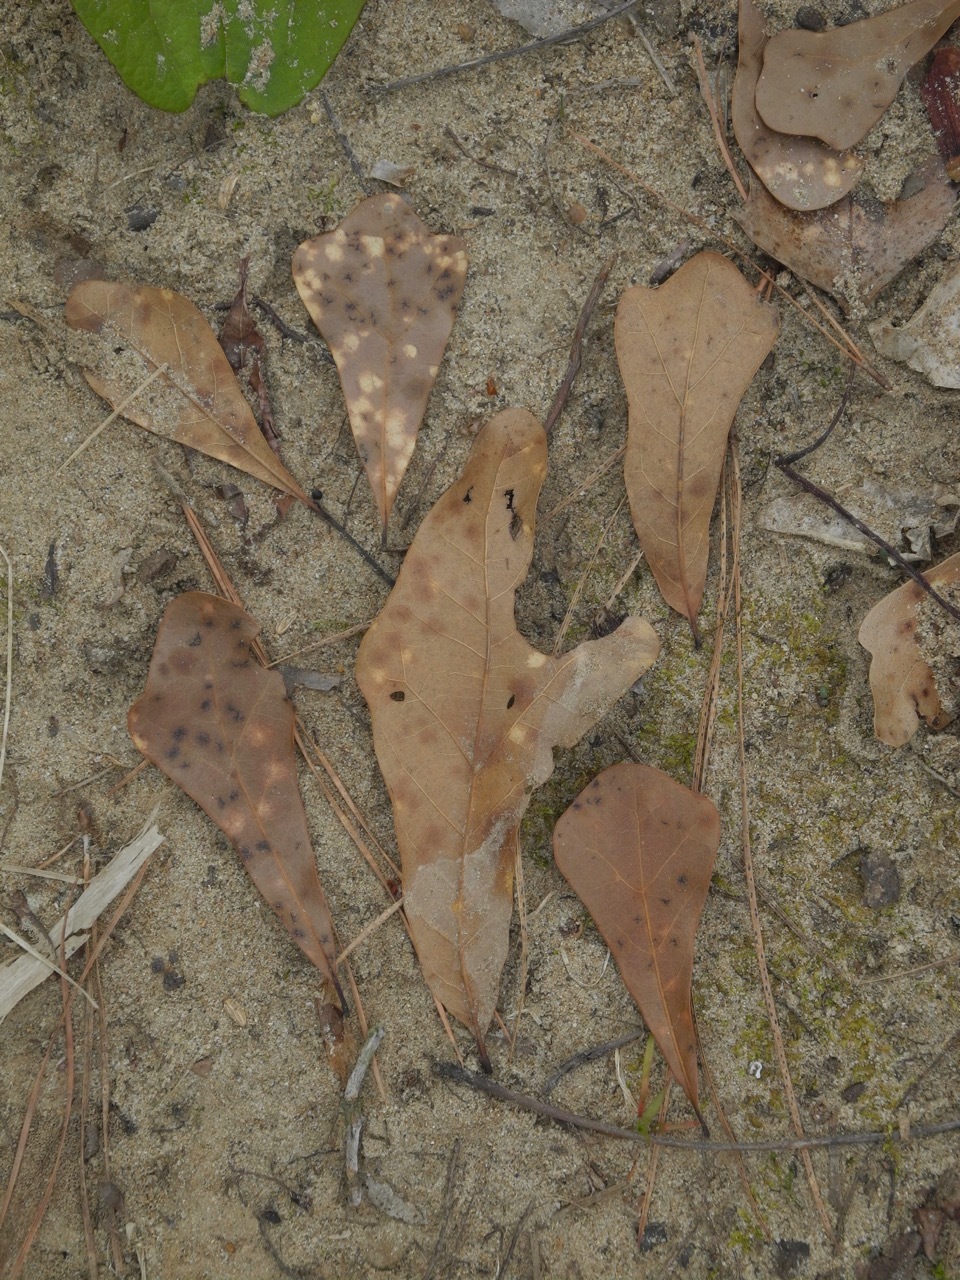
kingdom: Plantae
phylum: Tracheophyta
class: Magnoliopsida
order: Fagales
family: Fagaceae
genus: Quercus
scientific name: Quercus nigra
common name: Water oak
